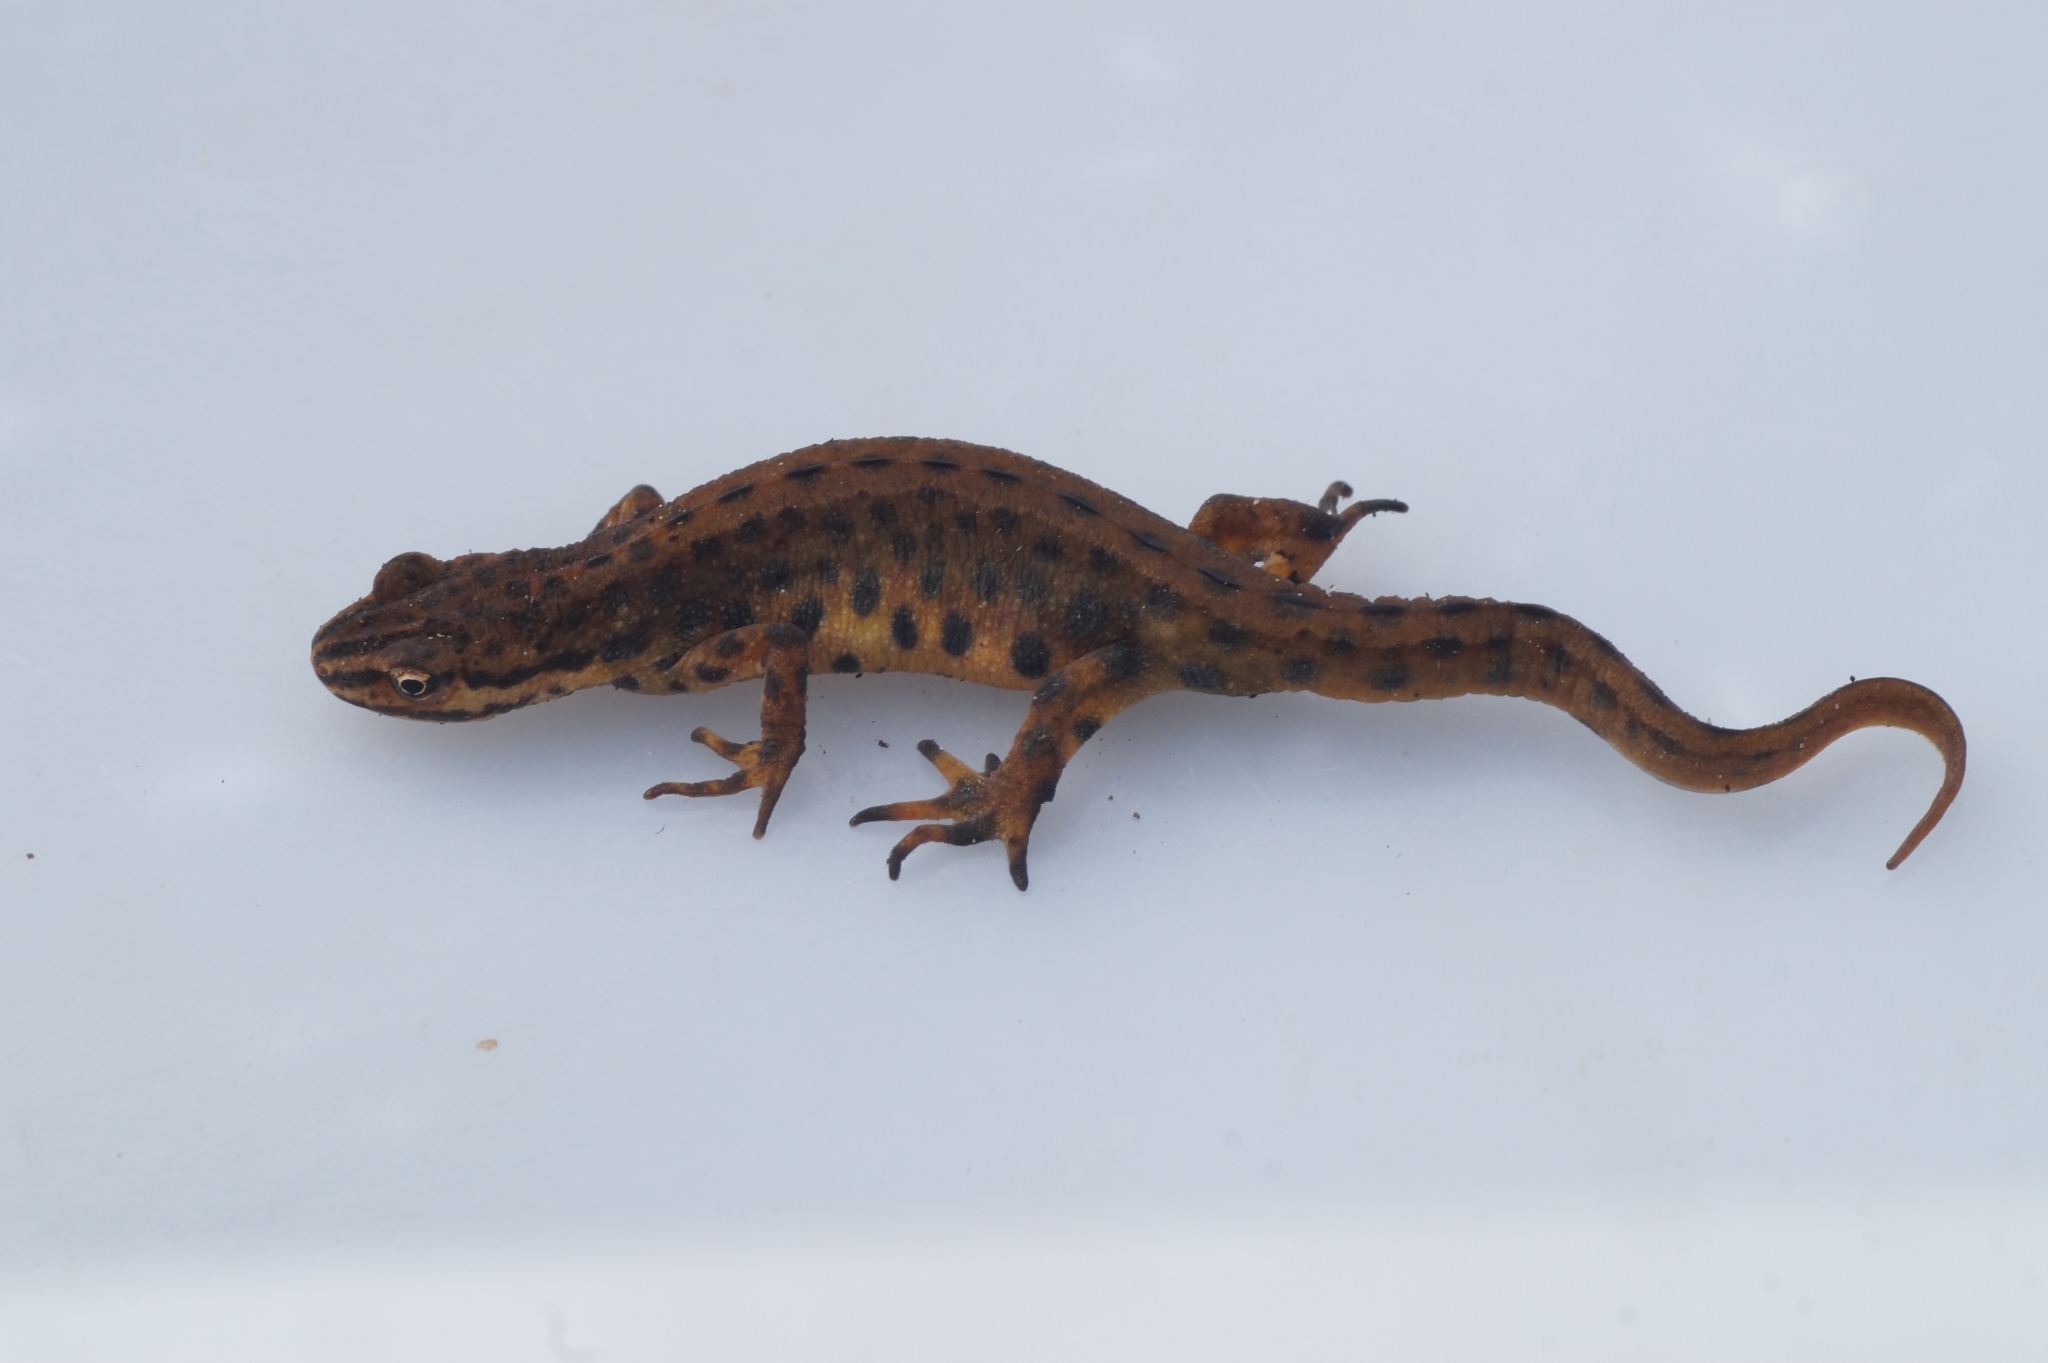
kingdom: Animalia
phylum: Chordata
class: Amphibia
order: Caudata
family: Salamandridae
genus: Lissotriton
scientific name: Lissotriton vulgaris
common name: Smooth newt
